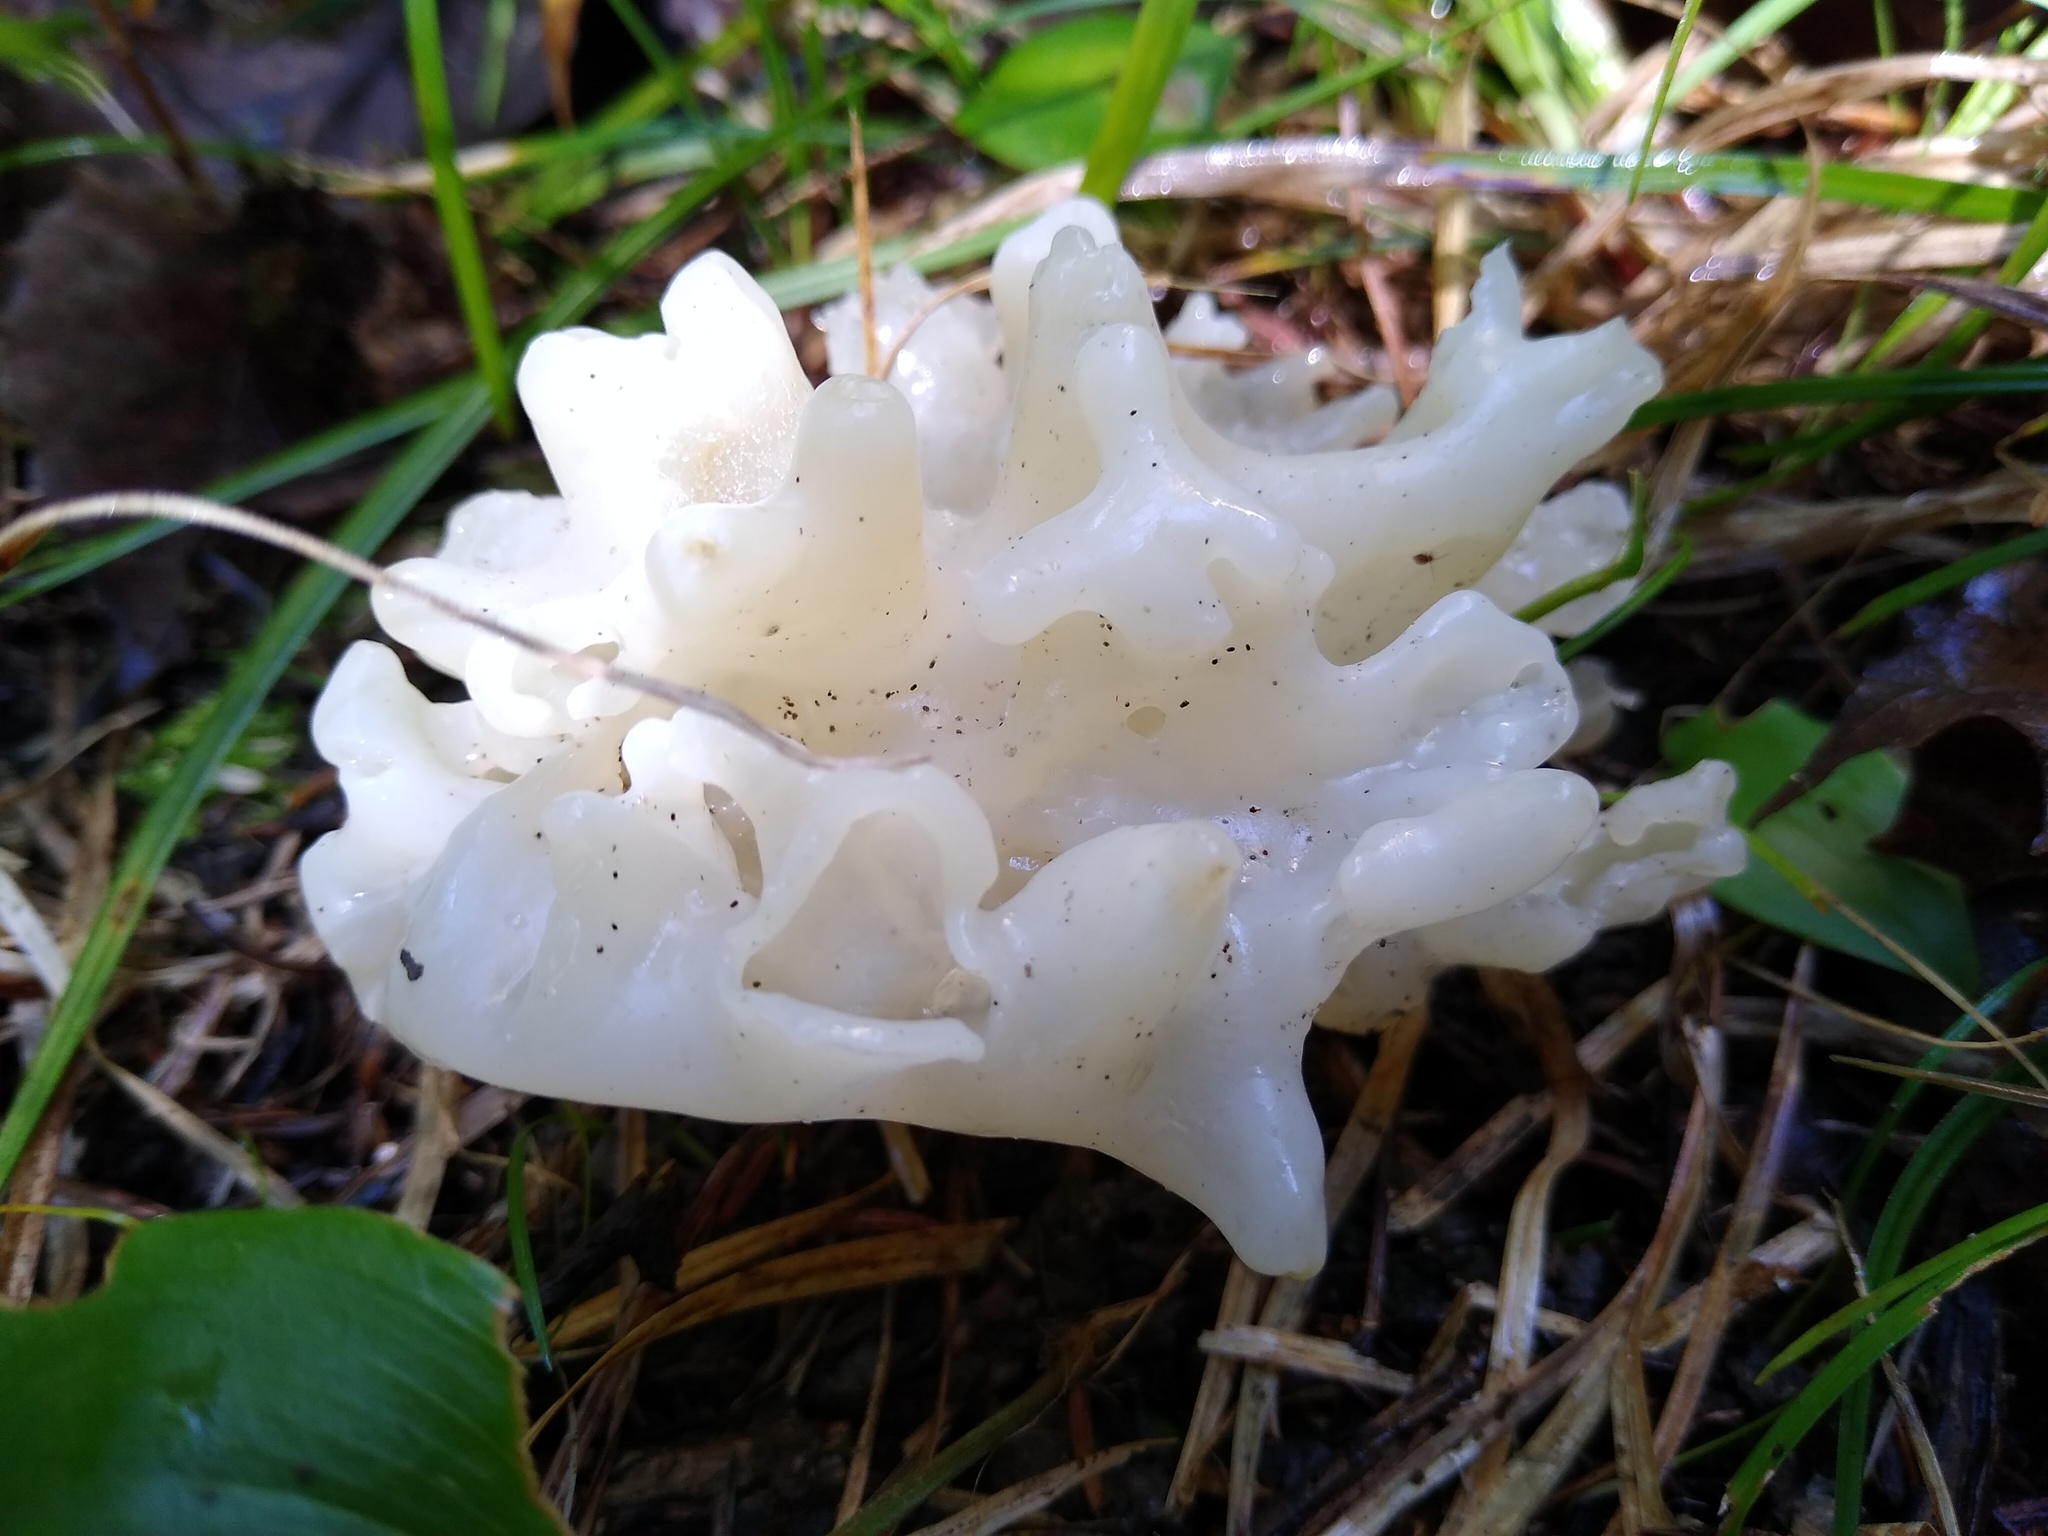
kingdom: Fungi
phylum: Basidiomycota
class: Agaricomycetes
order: Sebacinales
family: Sebacinaceae
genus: Sebacina
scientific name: Sebacina sparassoidea
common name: White coral jelly fungus
